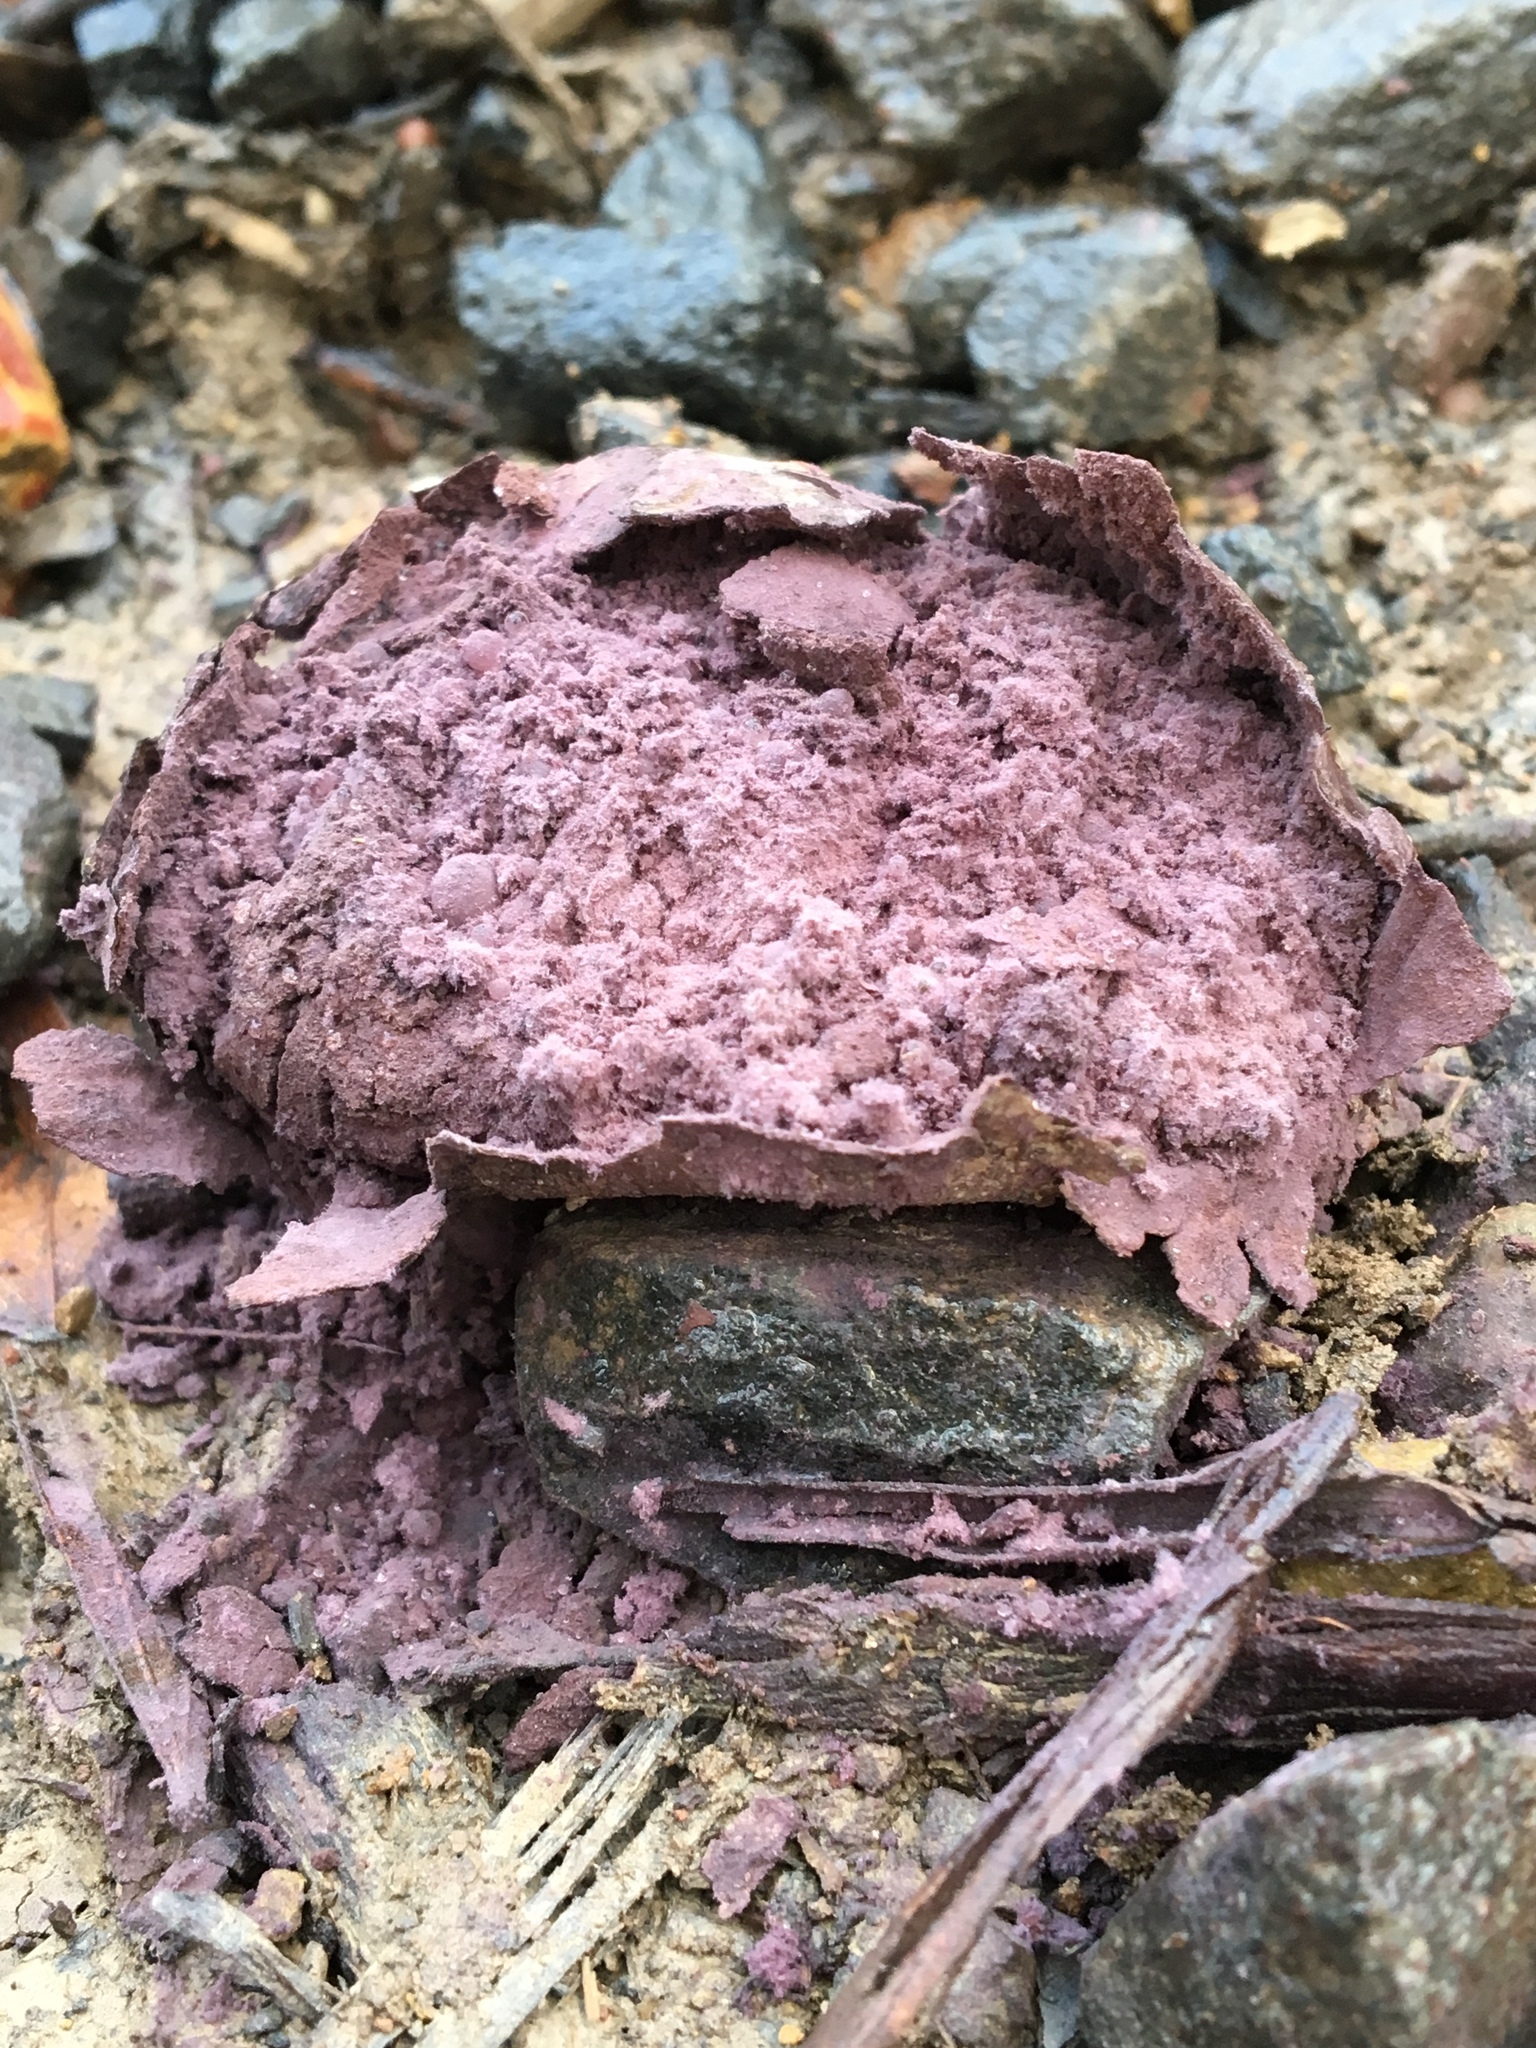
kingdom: Fungi
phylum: Basidiomycota
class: Agaricomycetes
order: Agaricales
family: Lycoperdaceae
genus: Calvatia
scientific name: Calvatia lilacina
